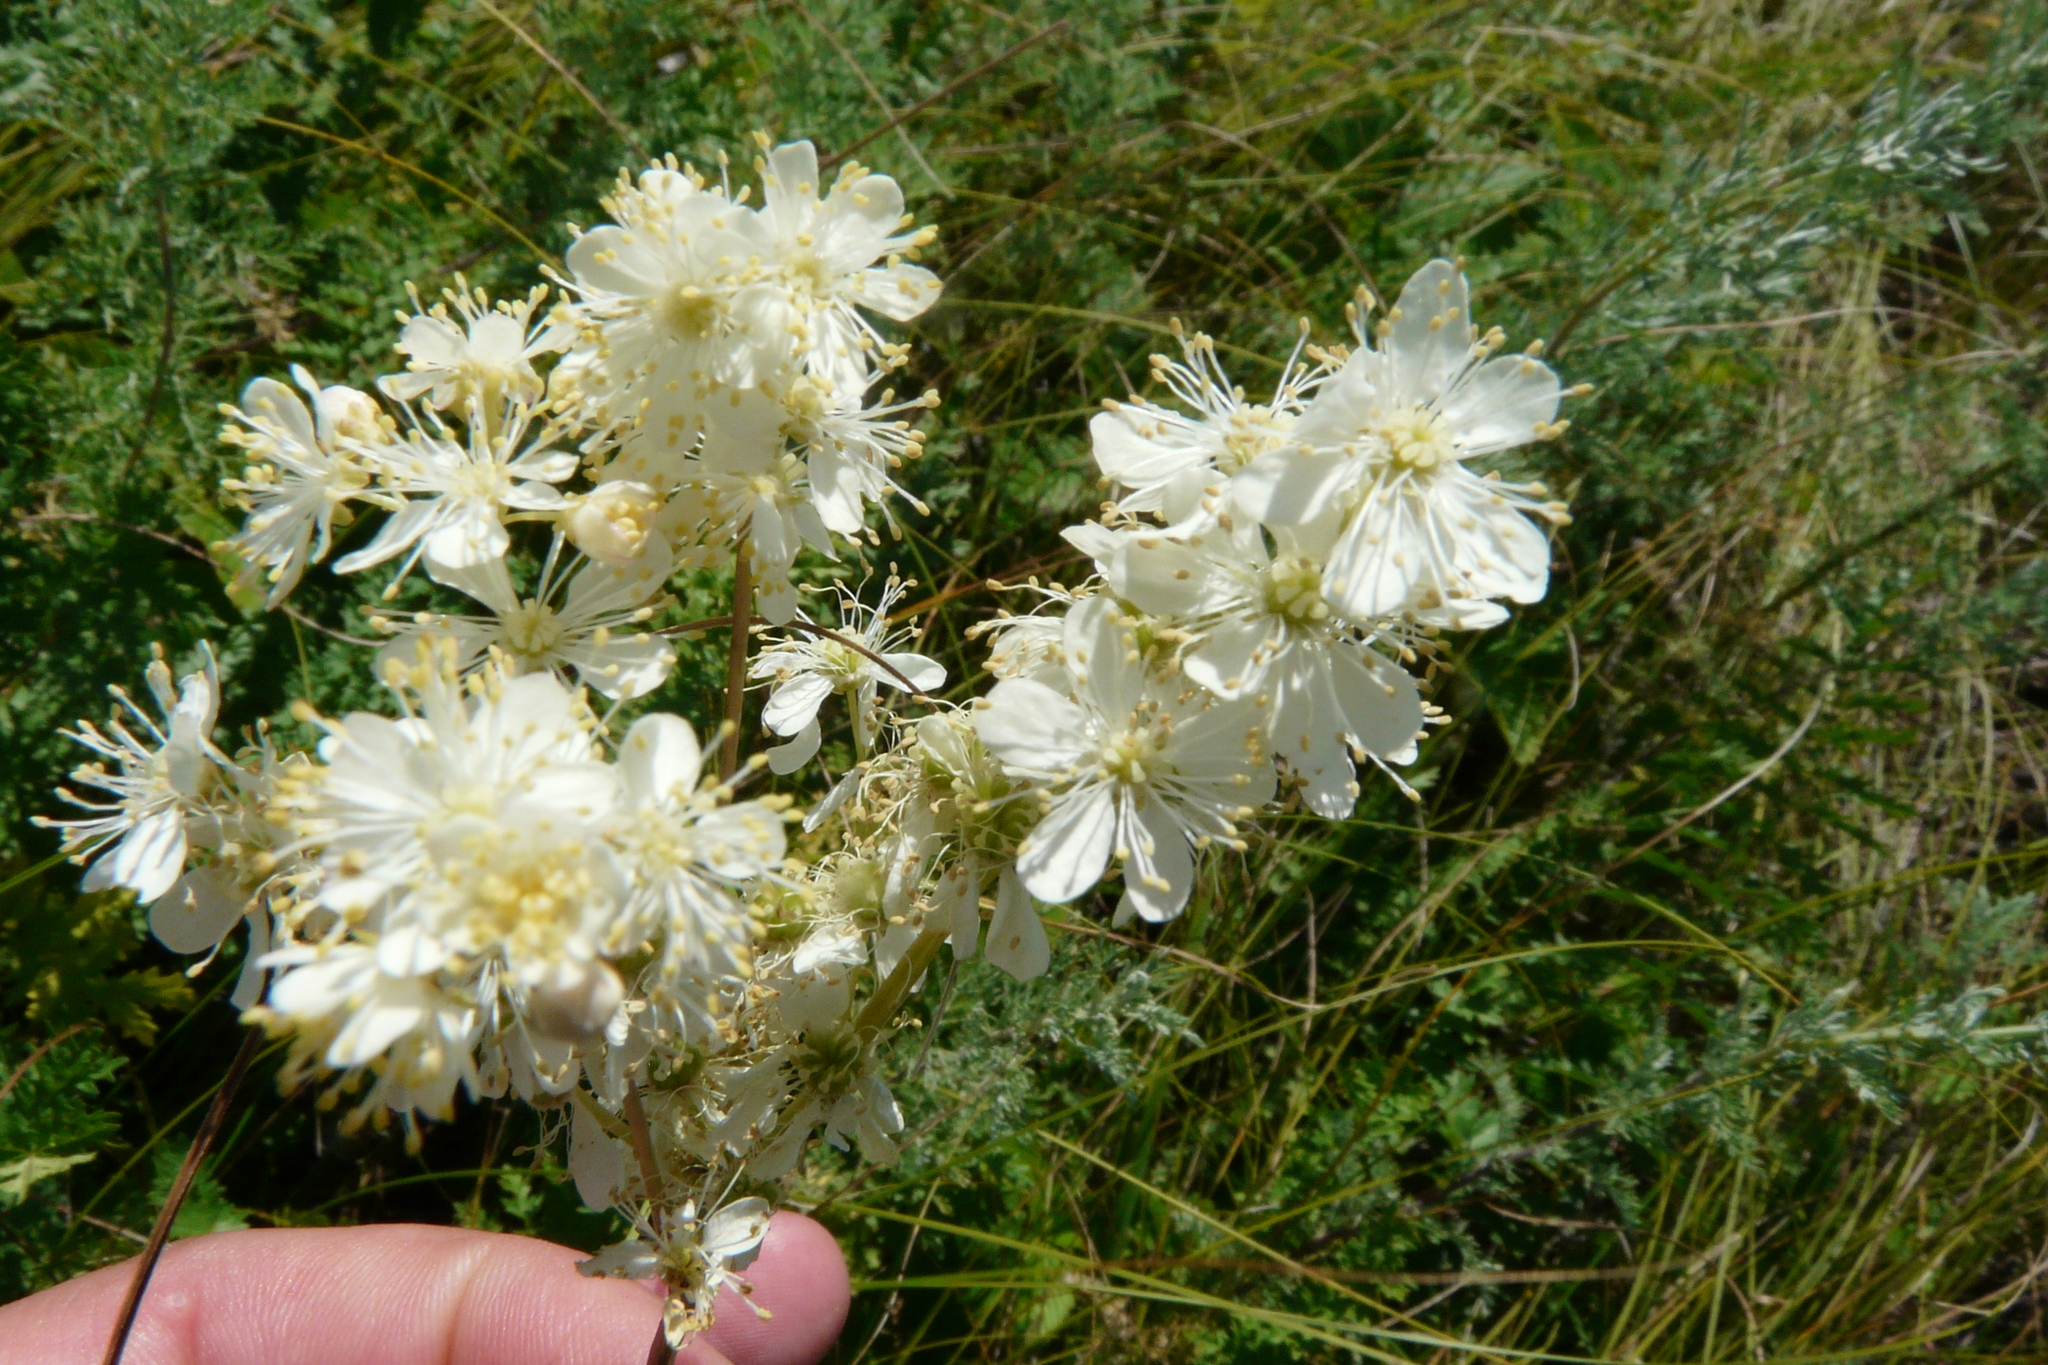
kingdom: Plantae
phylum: Tracheophyta
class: Magnoliopsida
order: Rosales
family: Rosaceae
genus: Filipendula
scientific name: Filipendula vulgaris
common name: Dropwort
